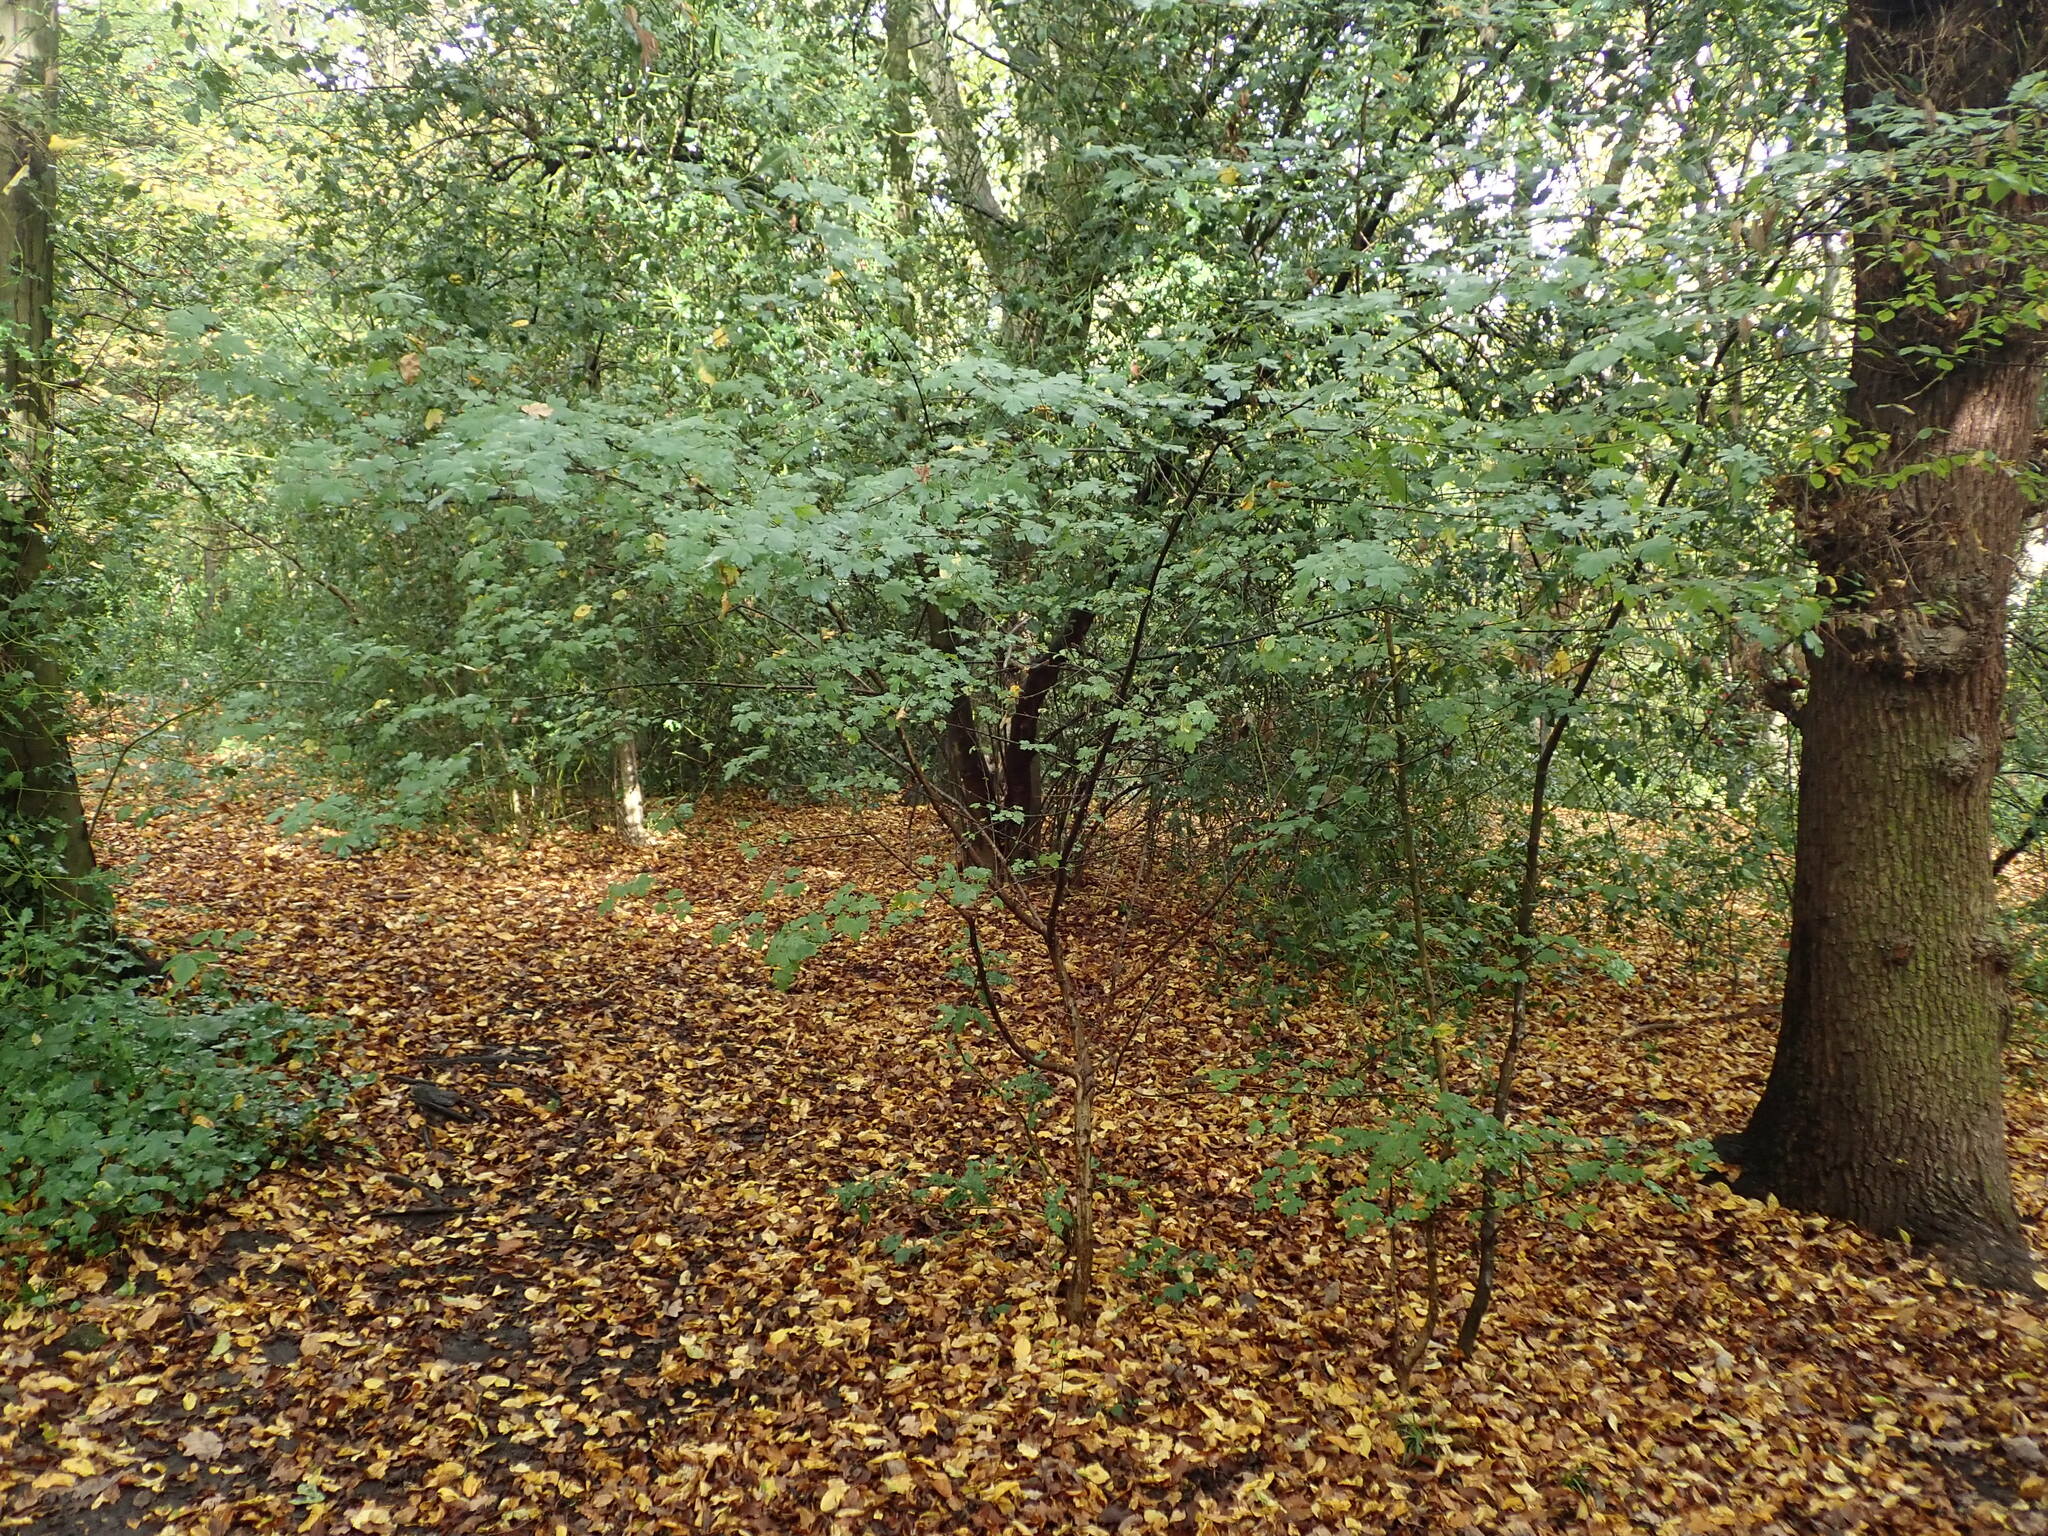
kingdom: Plantae
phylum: Tracheophyta
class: Magnoliopsida
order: Sapindales
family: Sapindaceae
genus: Acer
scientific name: Acer campestre
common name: Field maple
